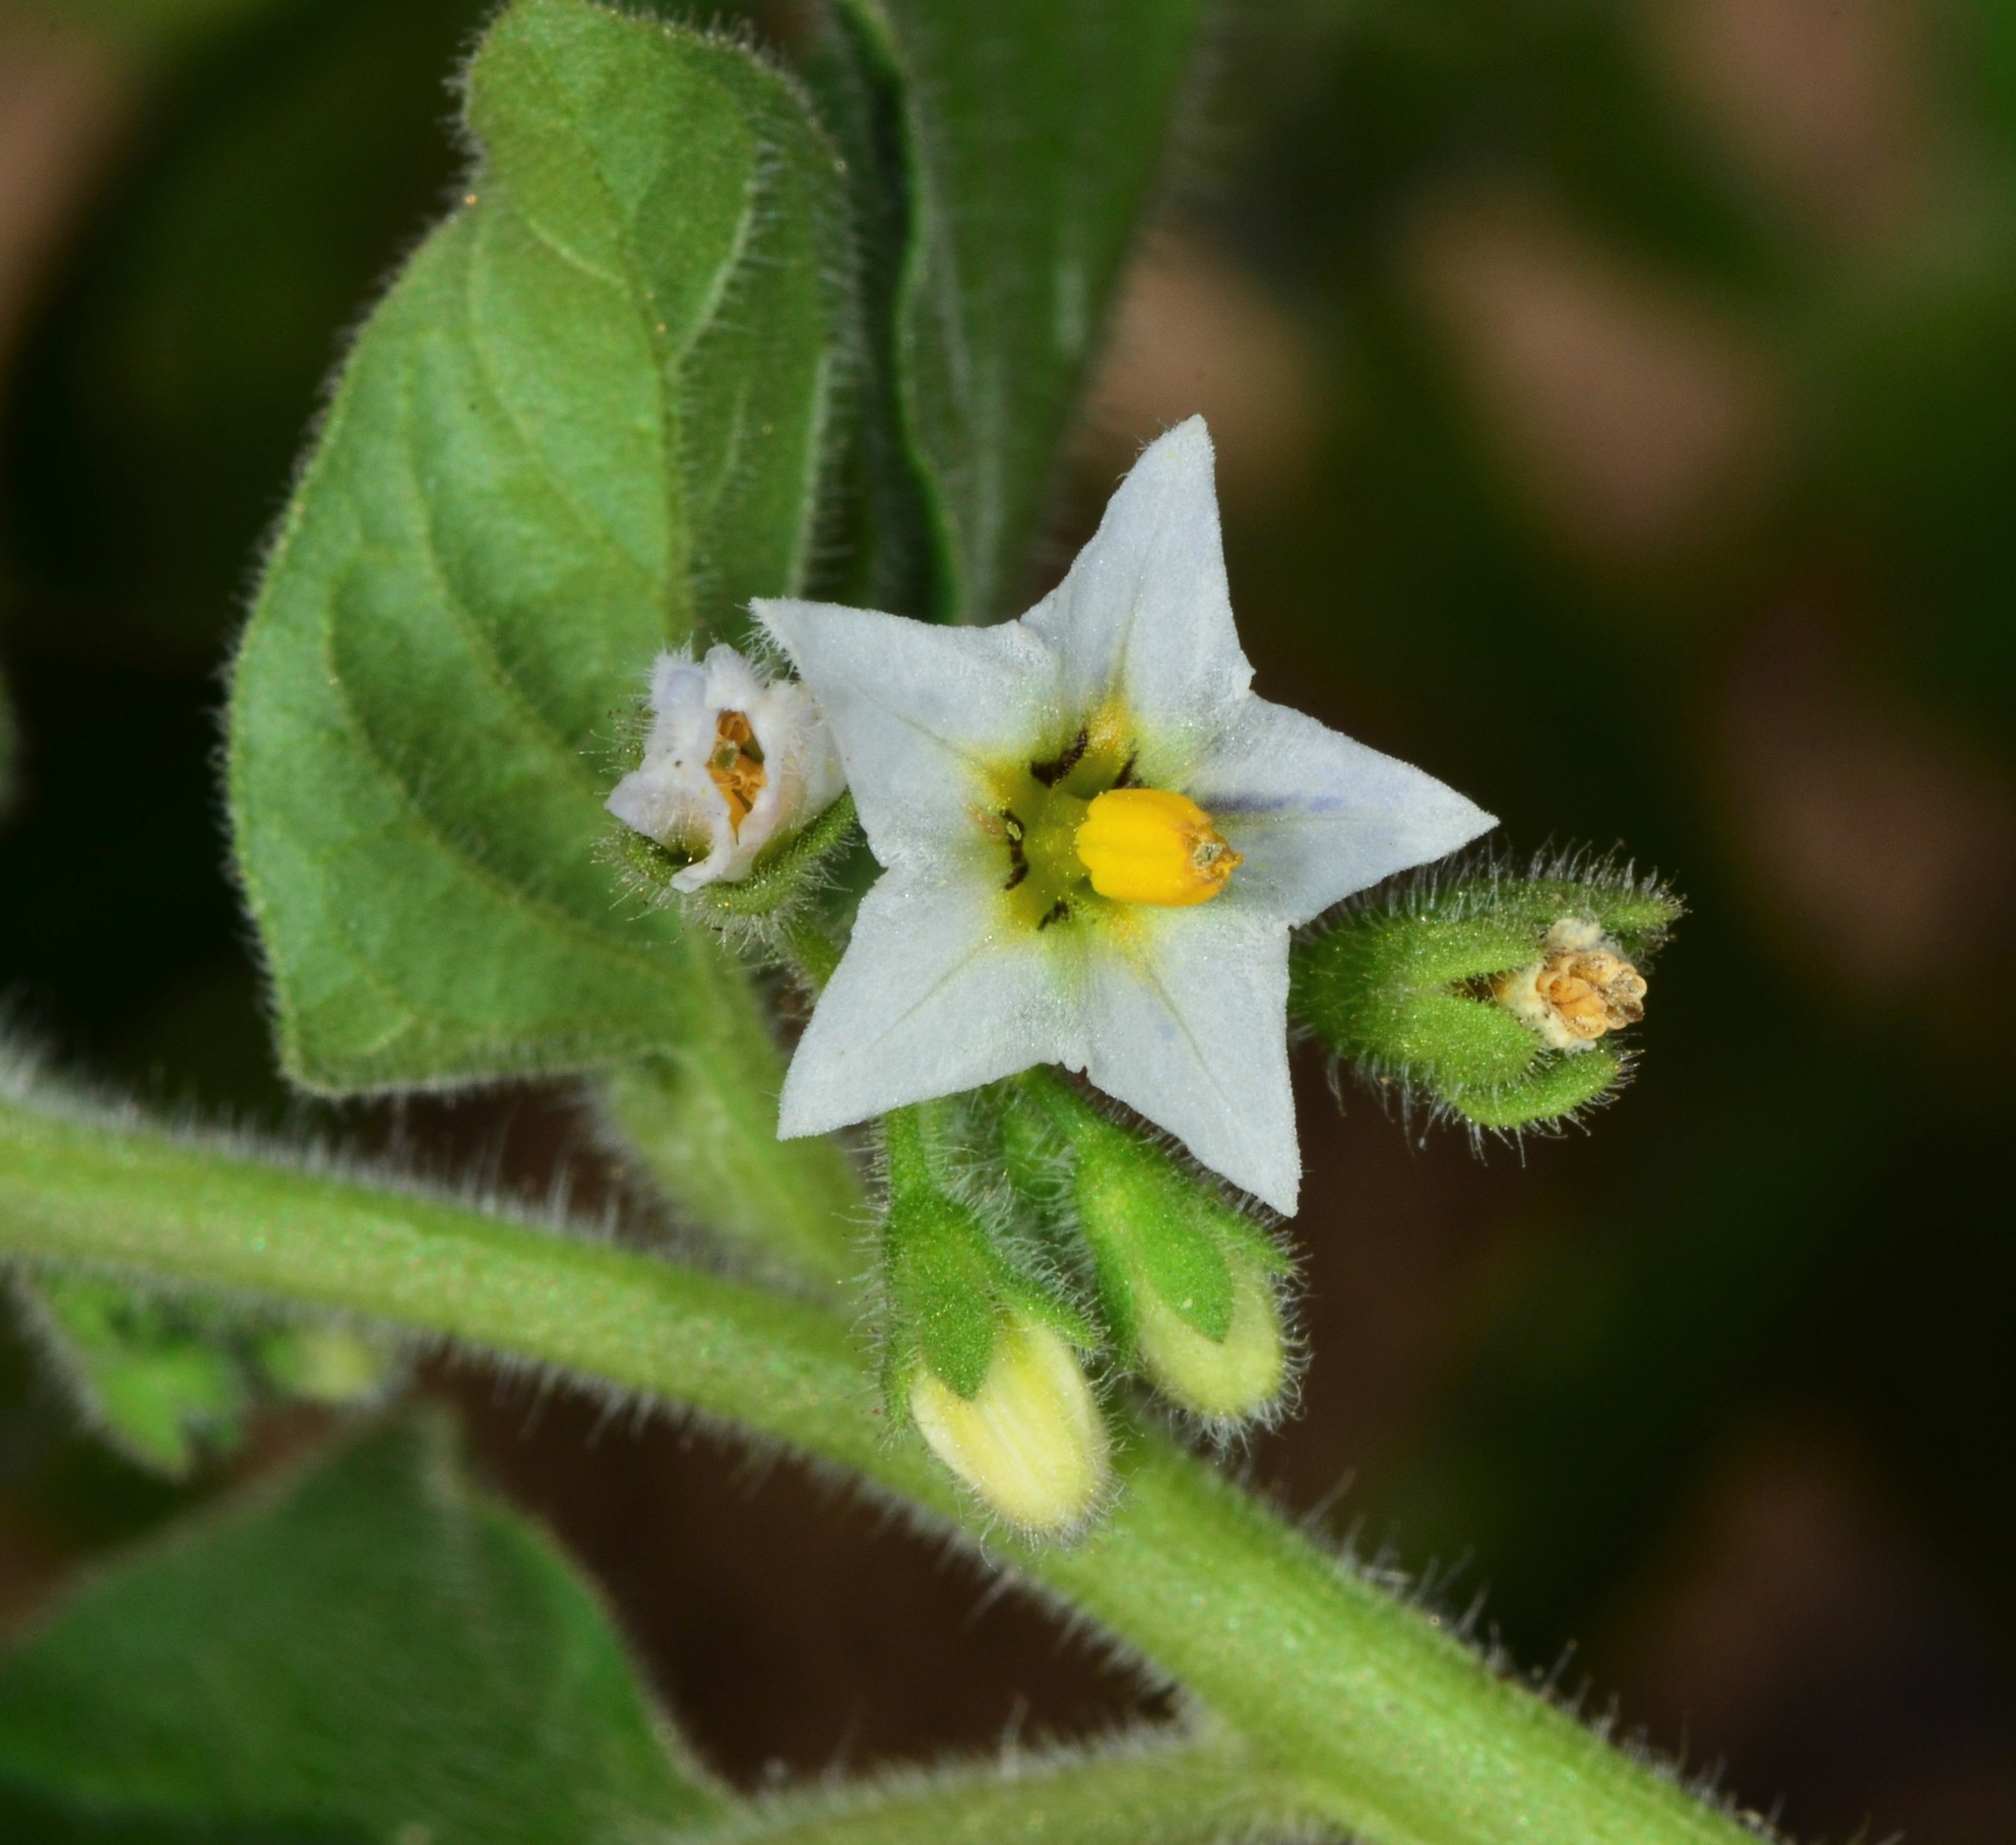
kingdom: Plantae
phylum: Tracheophyta
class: Magnoliopsida
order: Solanales
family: Solanaceae
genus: Solanum
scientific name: Solanum nitidibaccatum
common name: Hairy nightshade
